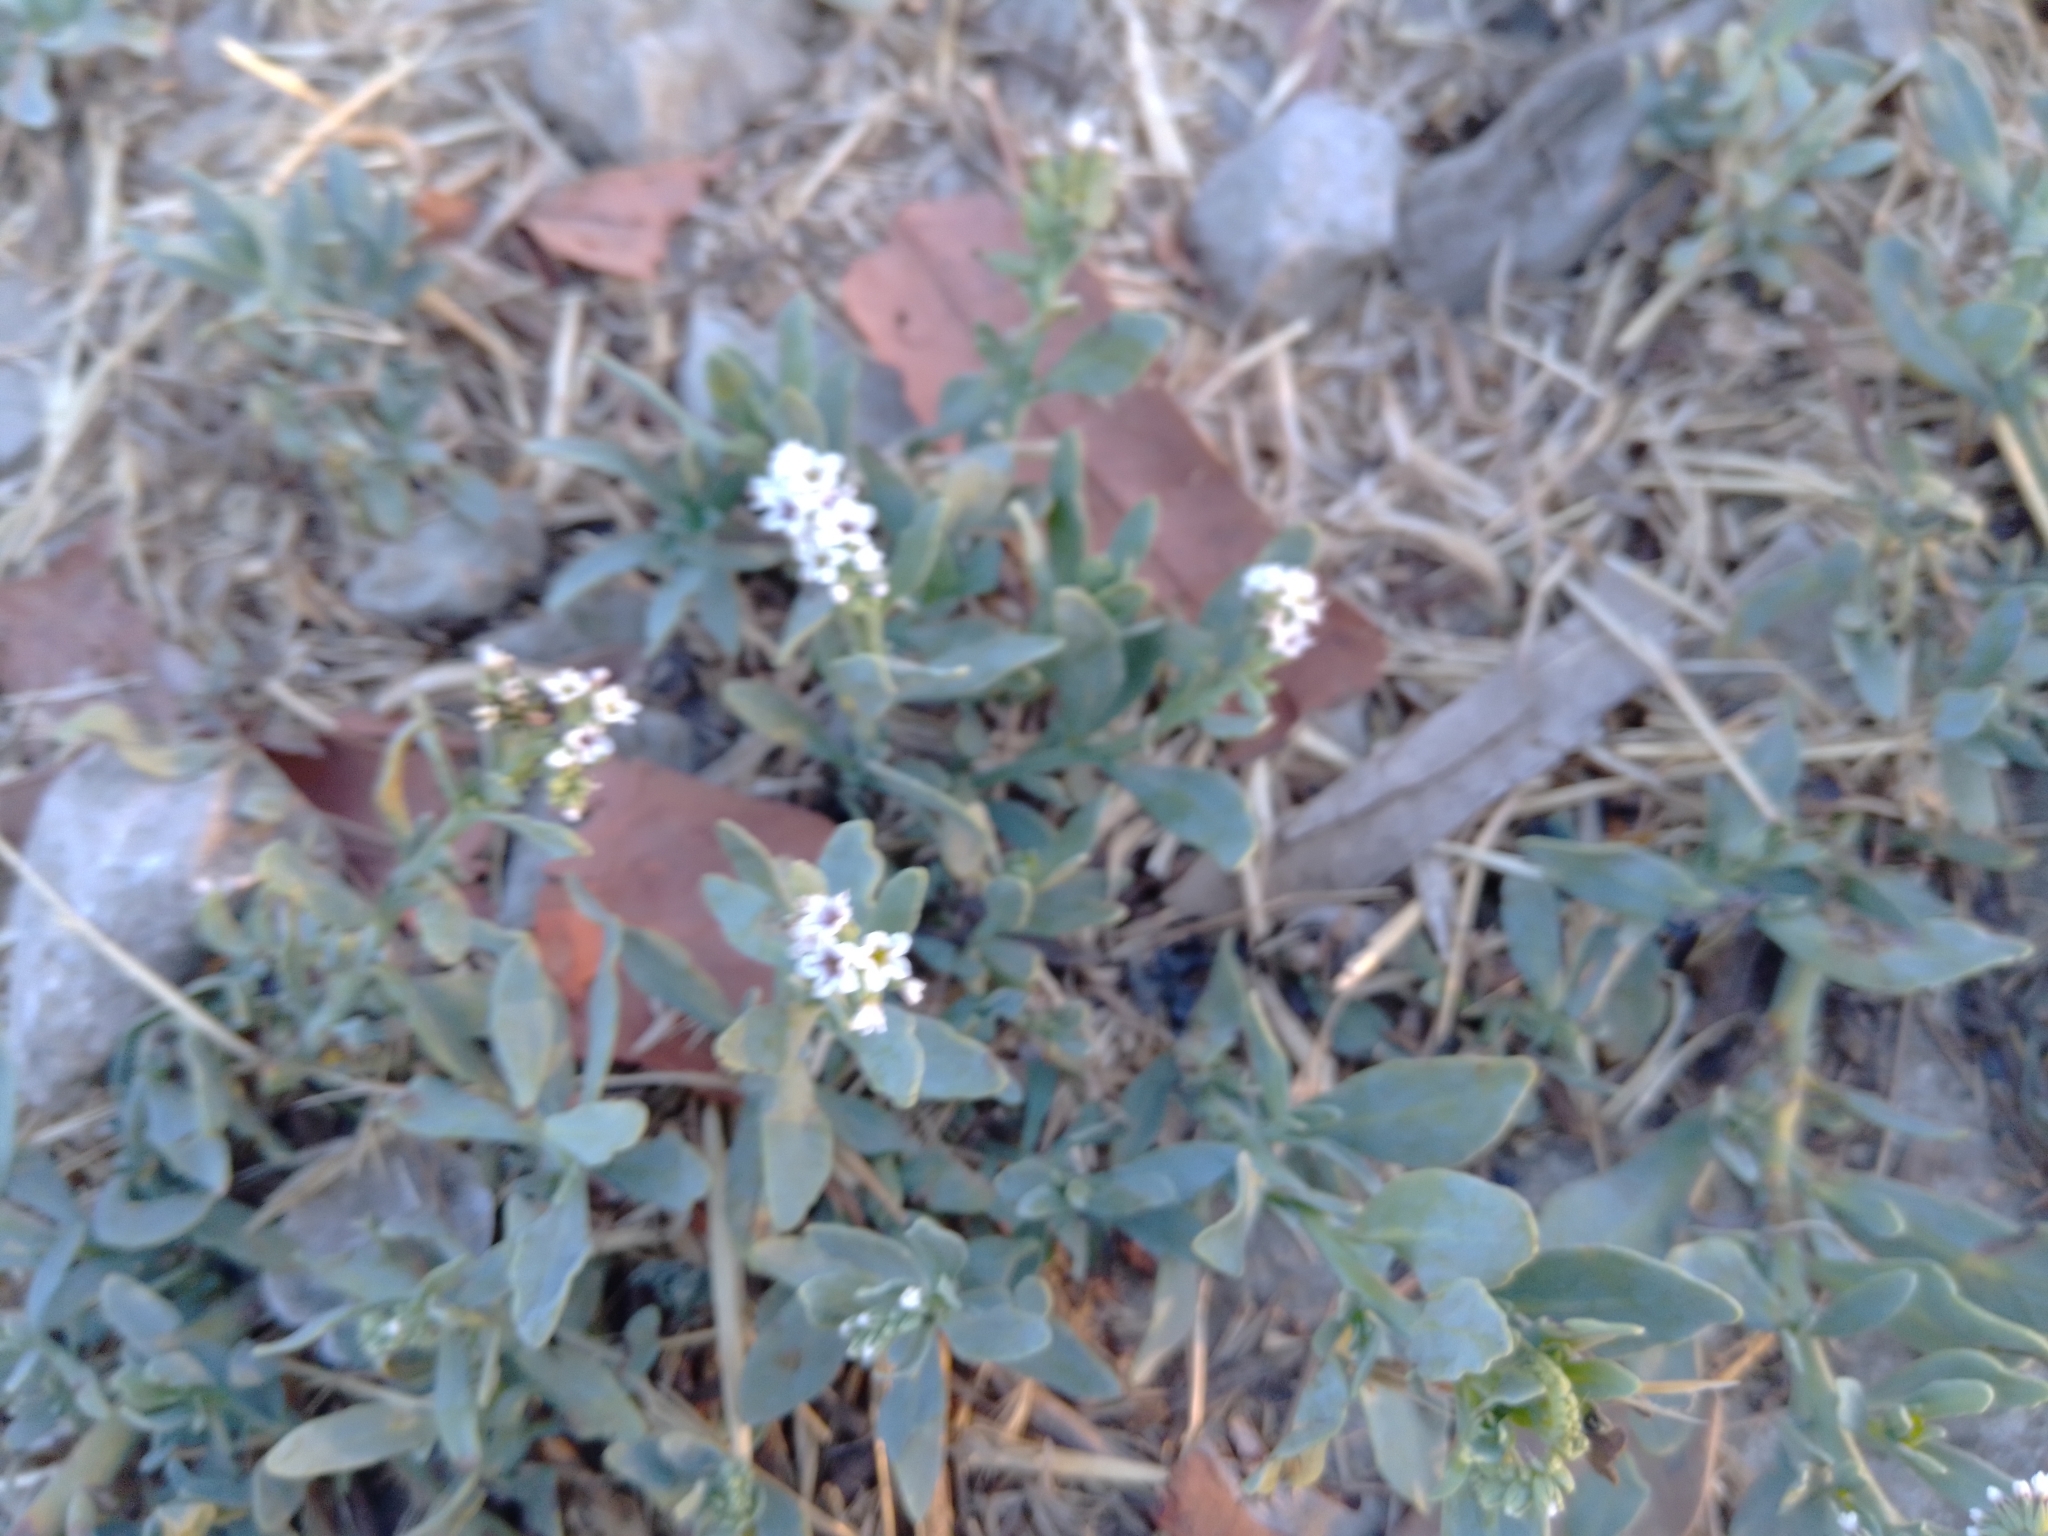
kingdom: Plantae
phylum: Tracheophyta
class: Magnoliopsida
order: Boraginales
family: Heliotropiaceae
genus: Heliotropium
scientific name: Heliotropium curassavicum
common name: Seaside heliotrope
